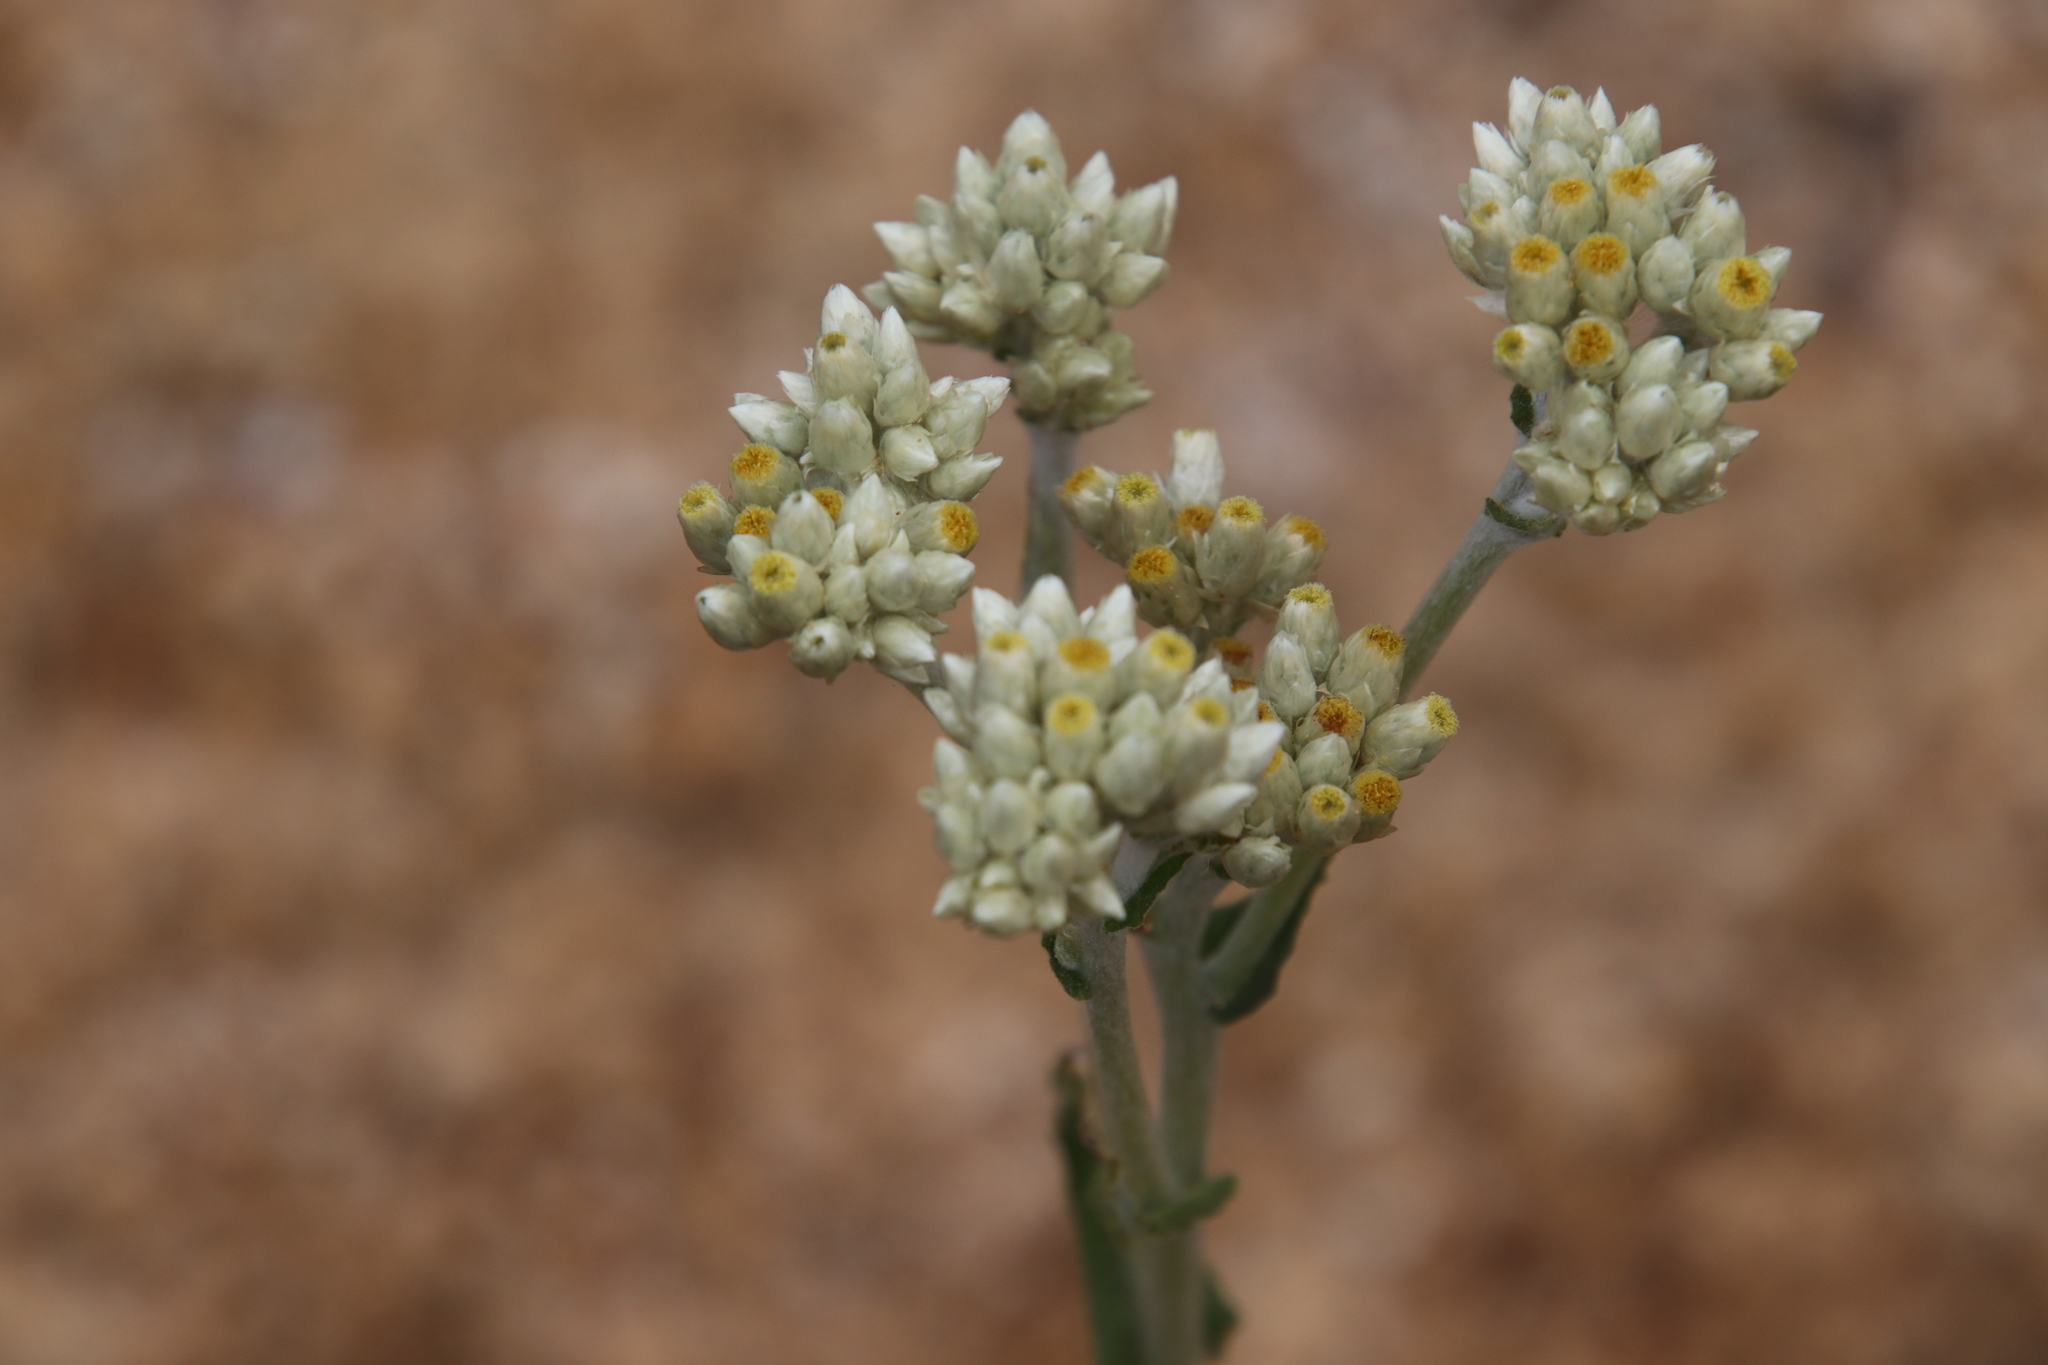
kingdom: Plantae
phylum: Tracheophyta
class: Magnoliopsida
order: Asterales
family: Asteraceae
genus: Pseudognaphalium
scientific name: Pseudognaphalium biolettii
